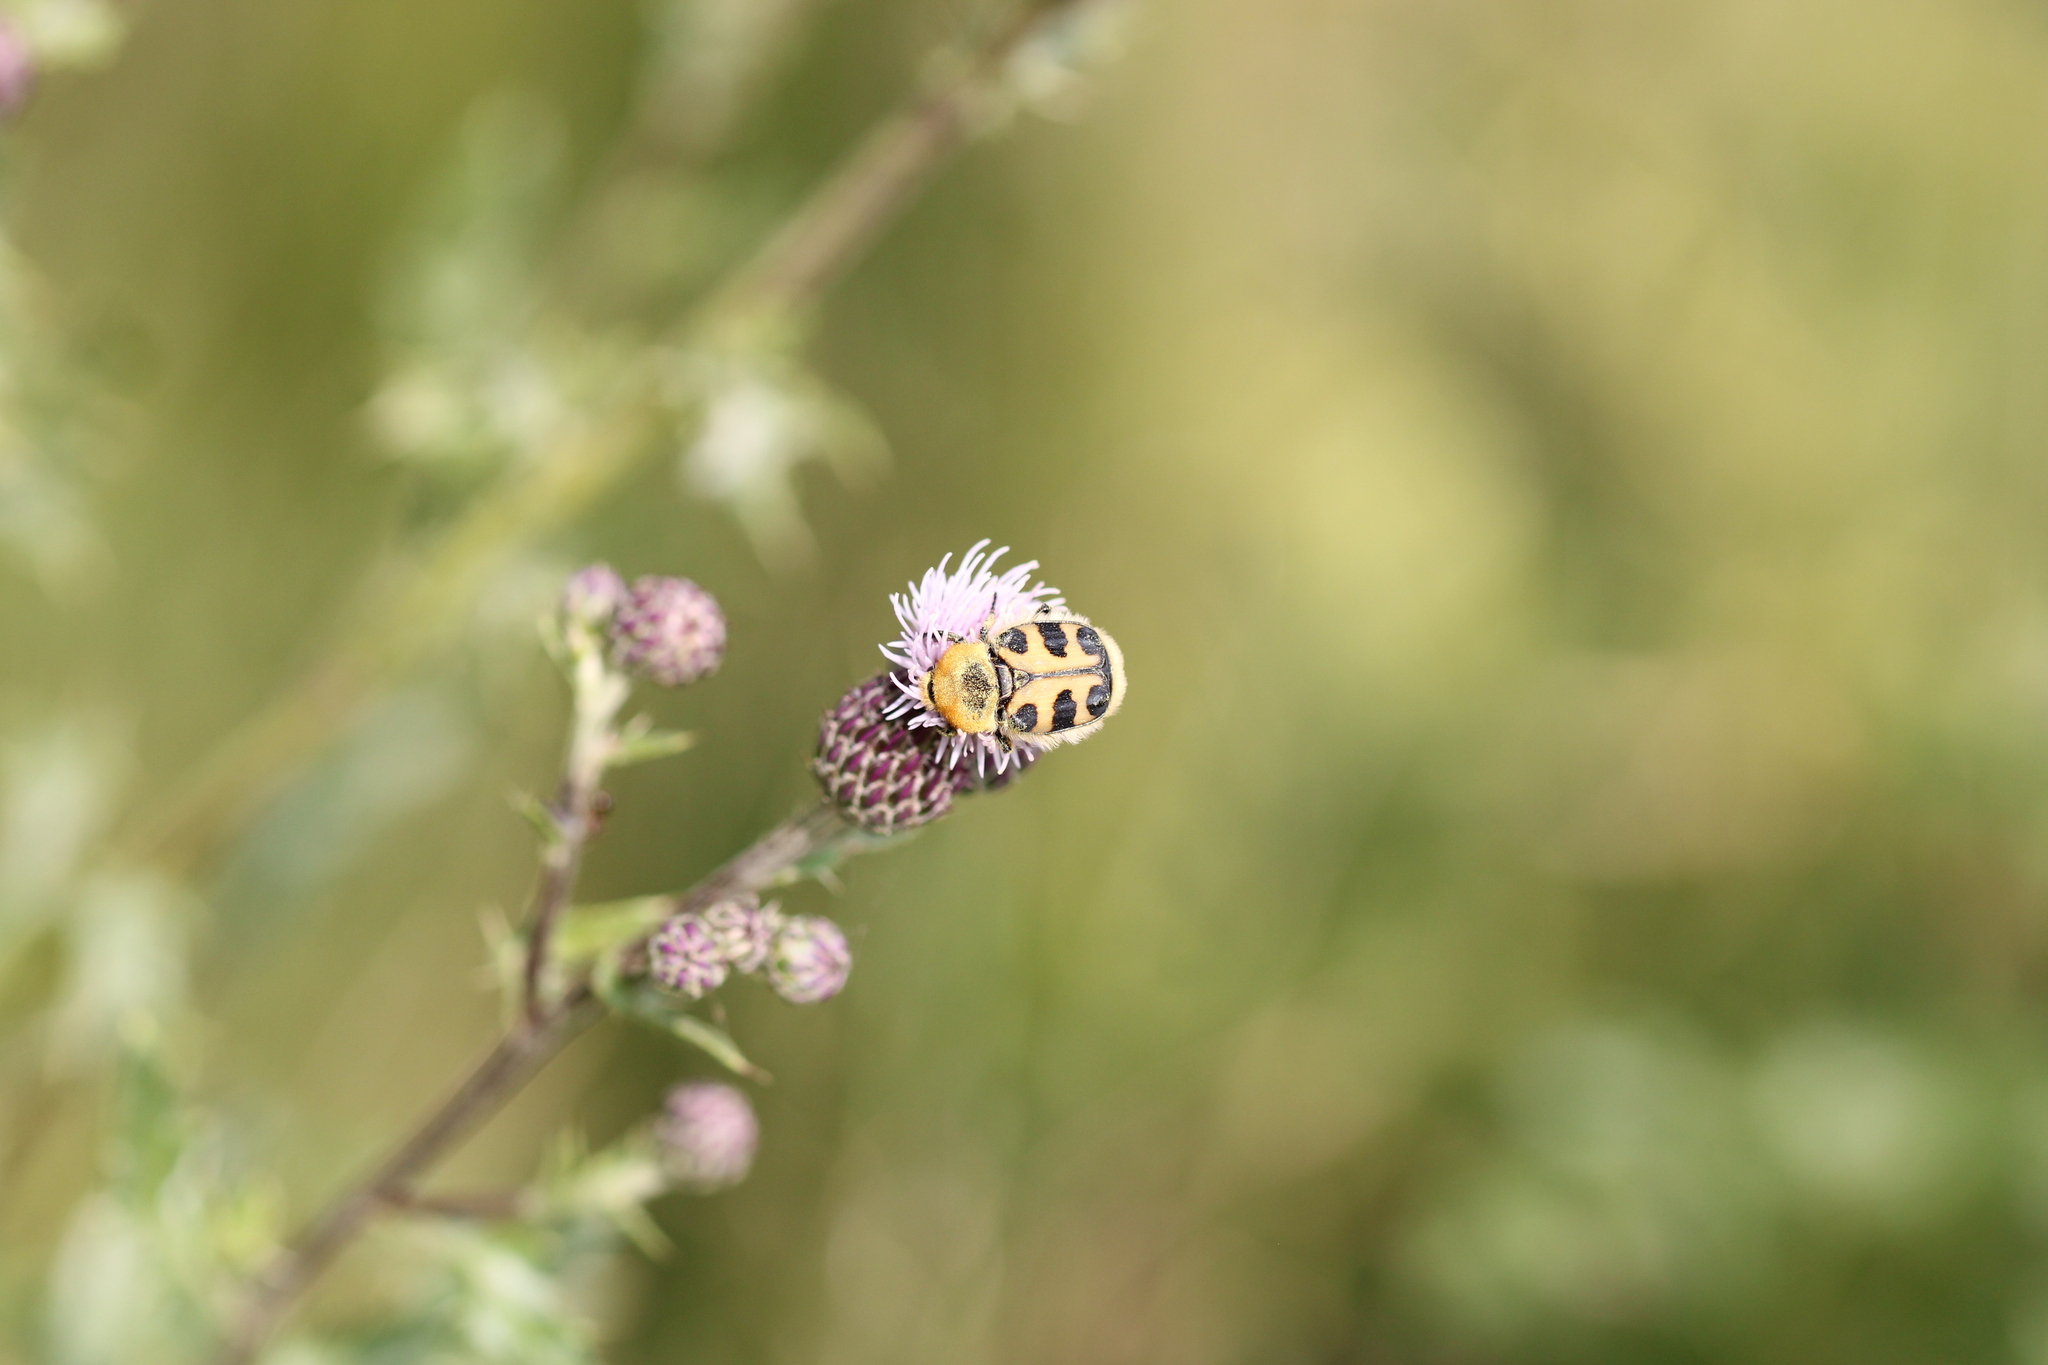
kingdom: Animalia
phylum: Arthropoda
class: Insecta
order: Coleoptera
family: Scarabaeidae
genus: Trichius
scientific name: Trichius gallicus
